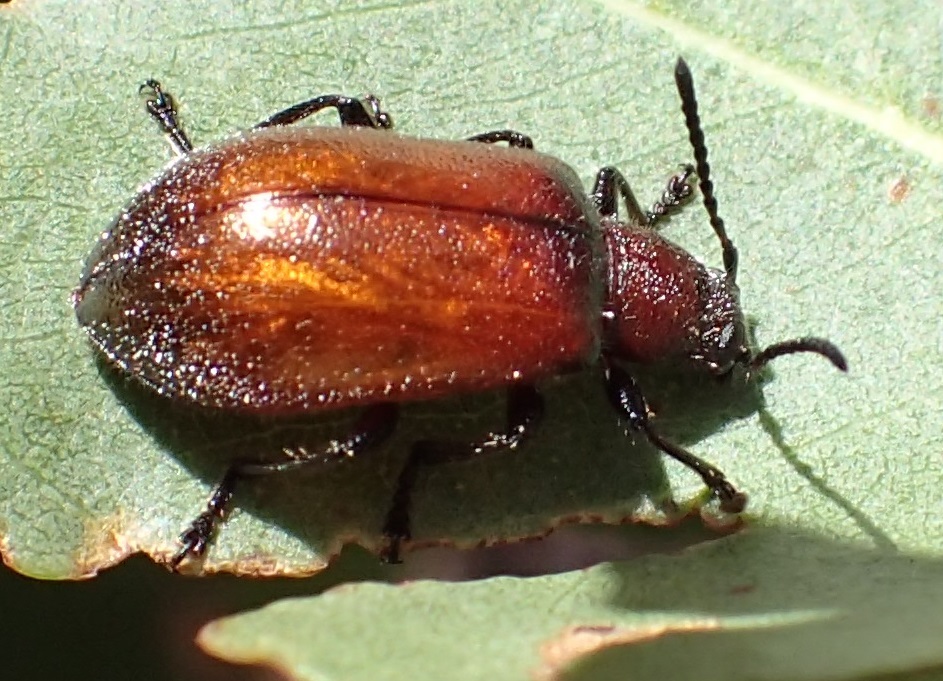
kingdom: Animalia
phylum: Arthropoda
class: Insecta
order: Coleoptera
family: Tenebrionidae
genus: Ecnolagria
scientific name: Ecnolagria
